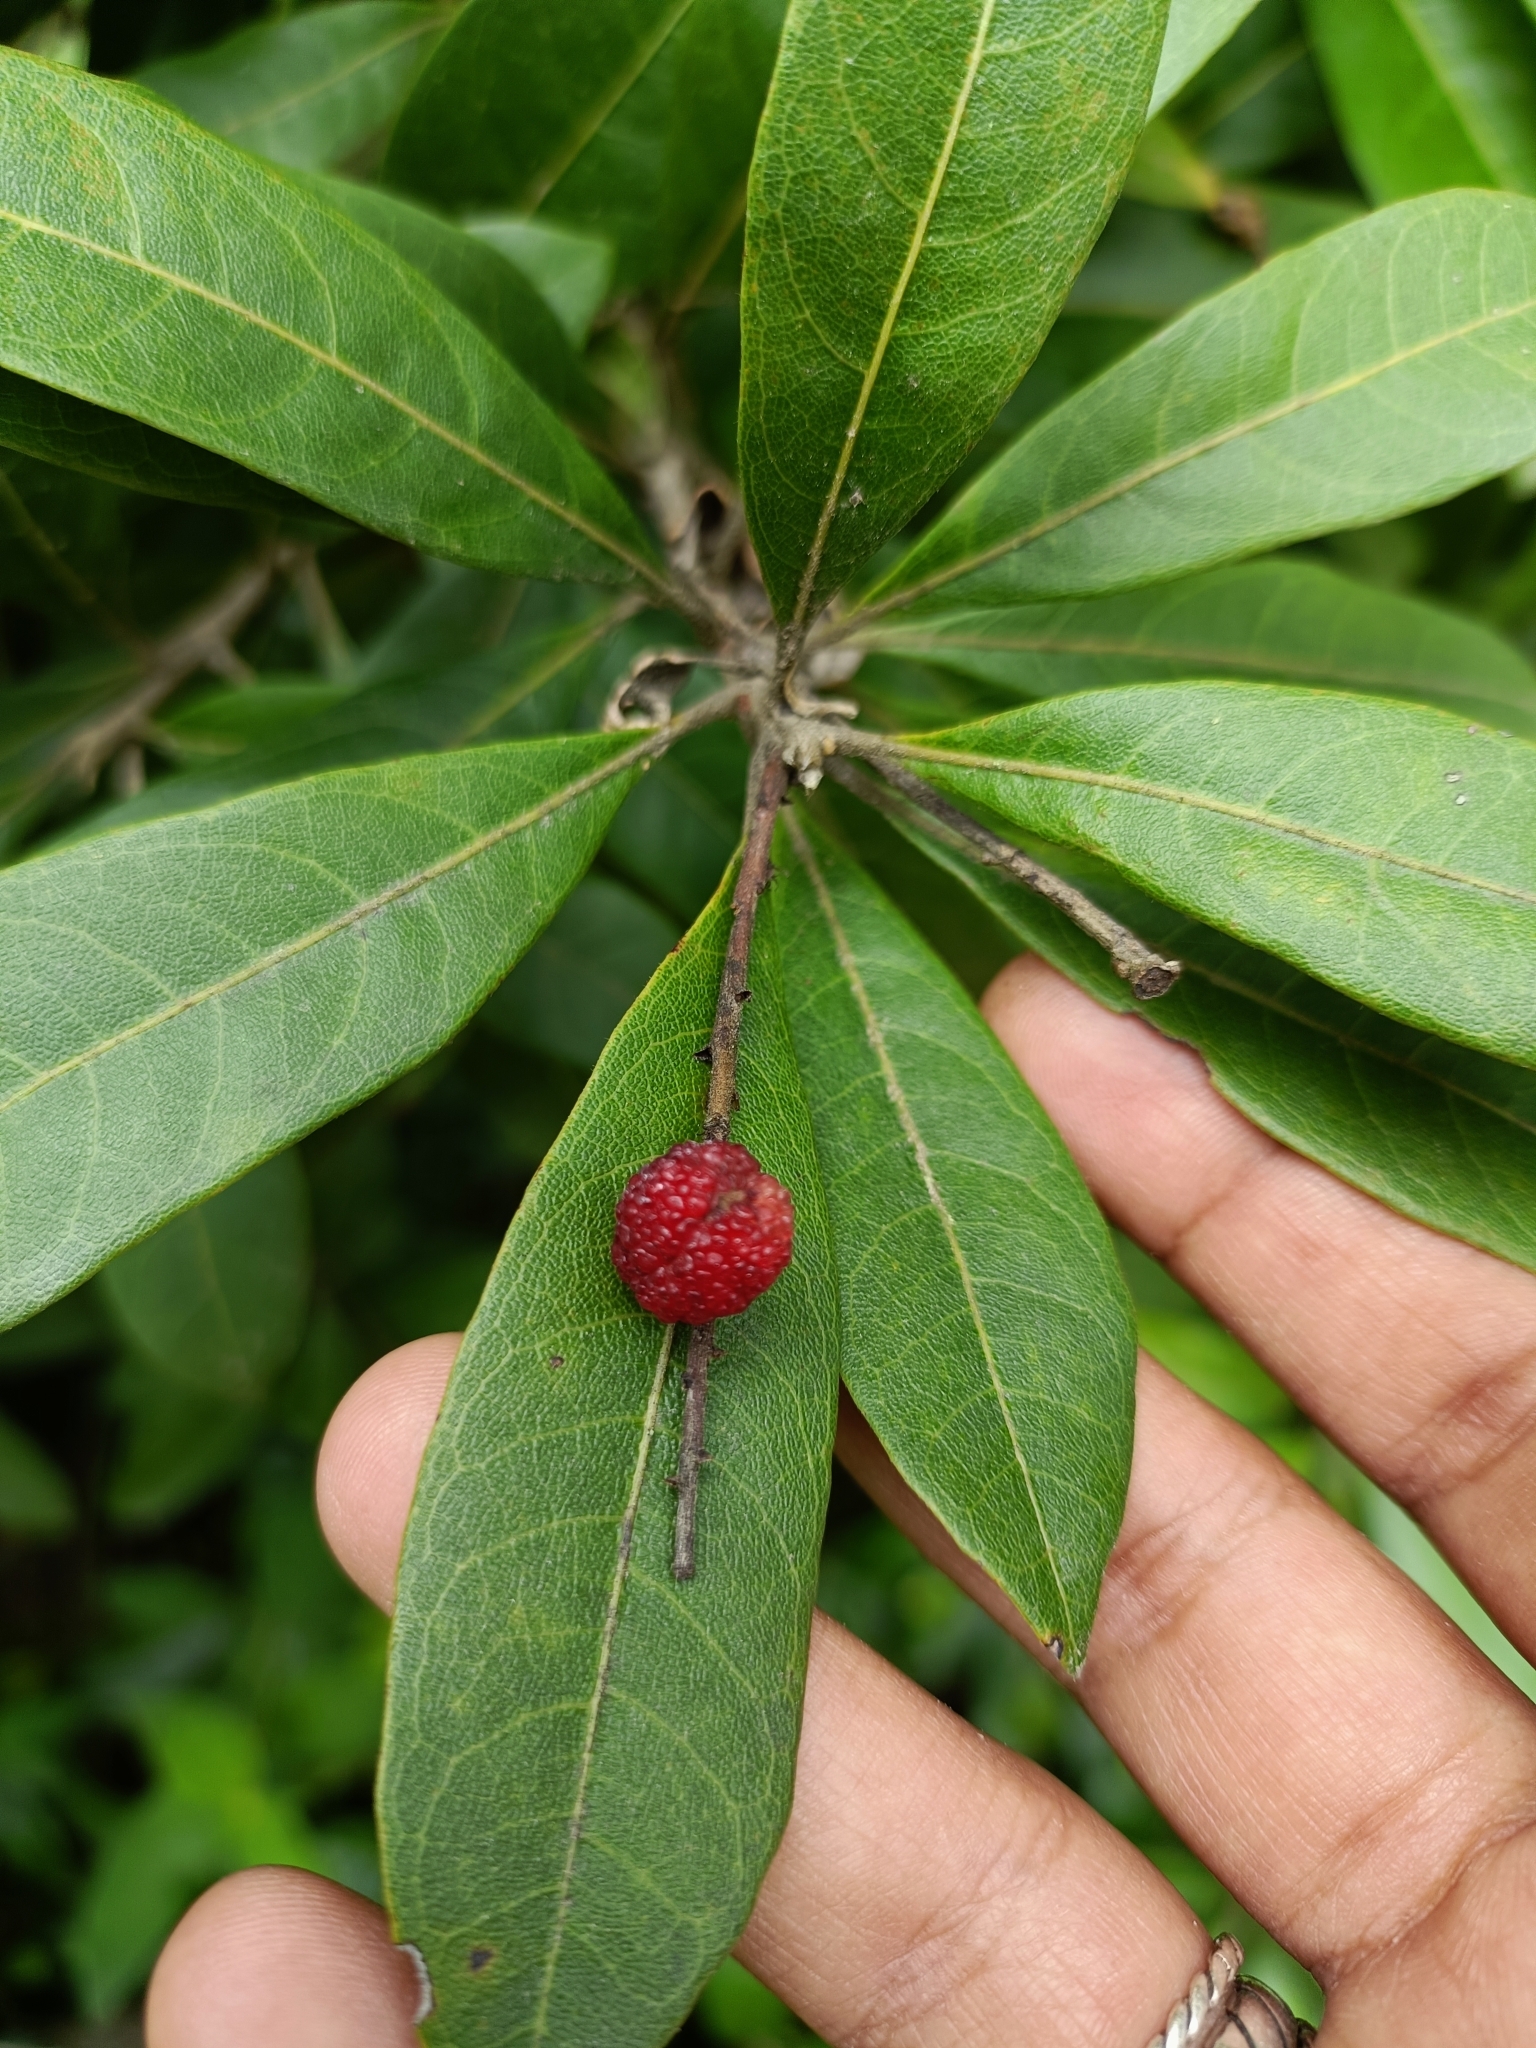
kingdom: Plantae
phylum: Tracheophyta
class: Magnoliopsida
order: Fagales
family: Myricaceae
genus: Morella
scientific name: Morella esculenta
